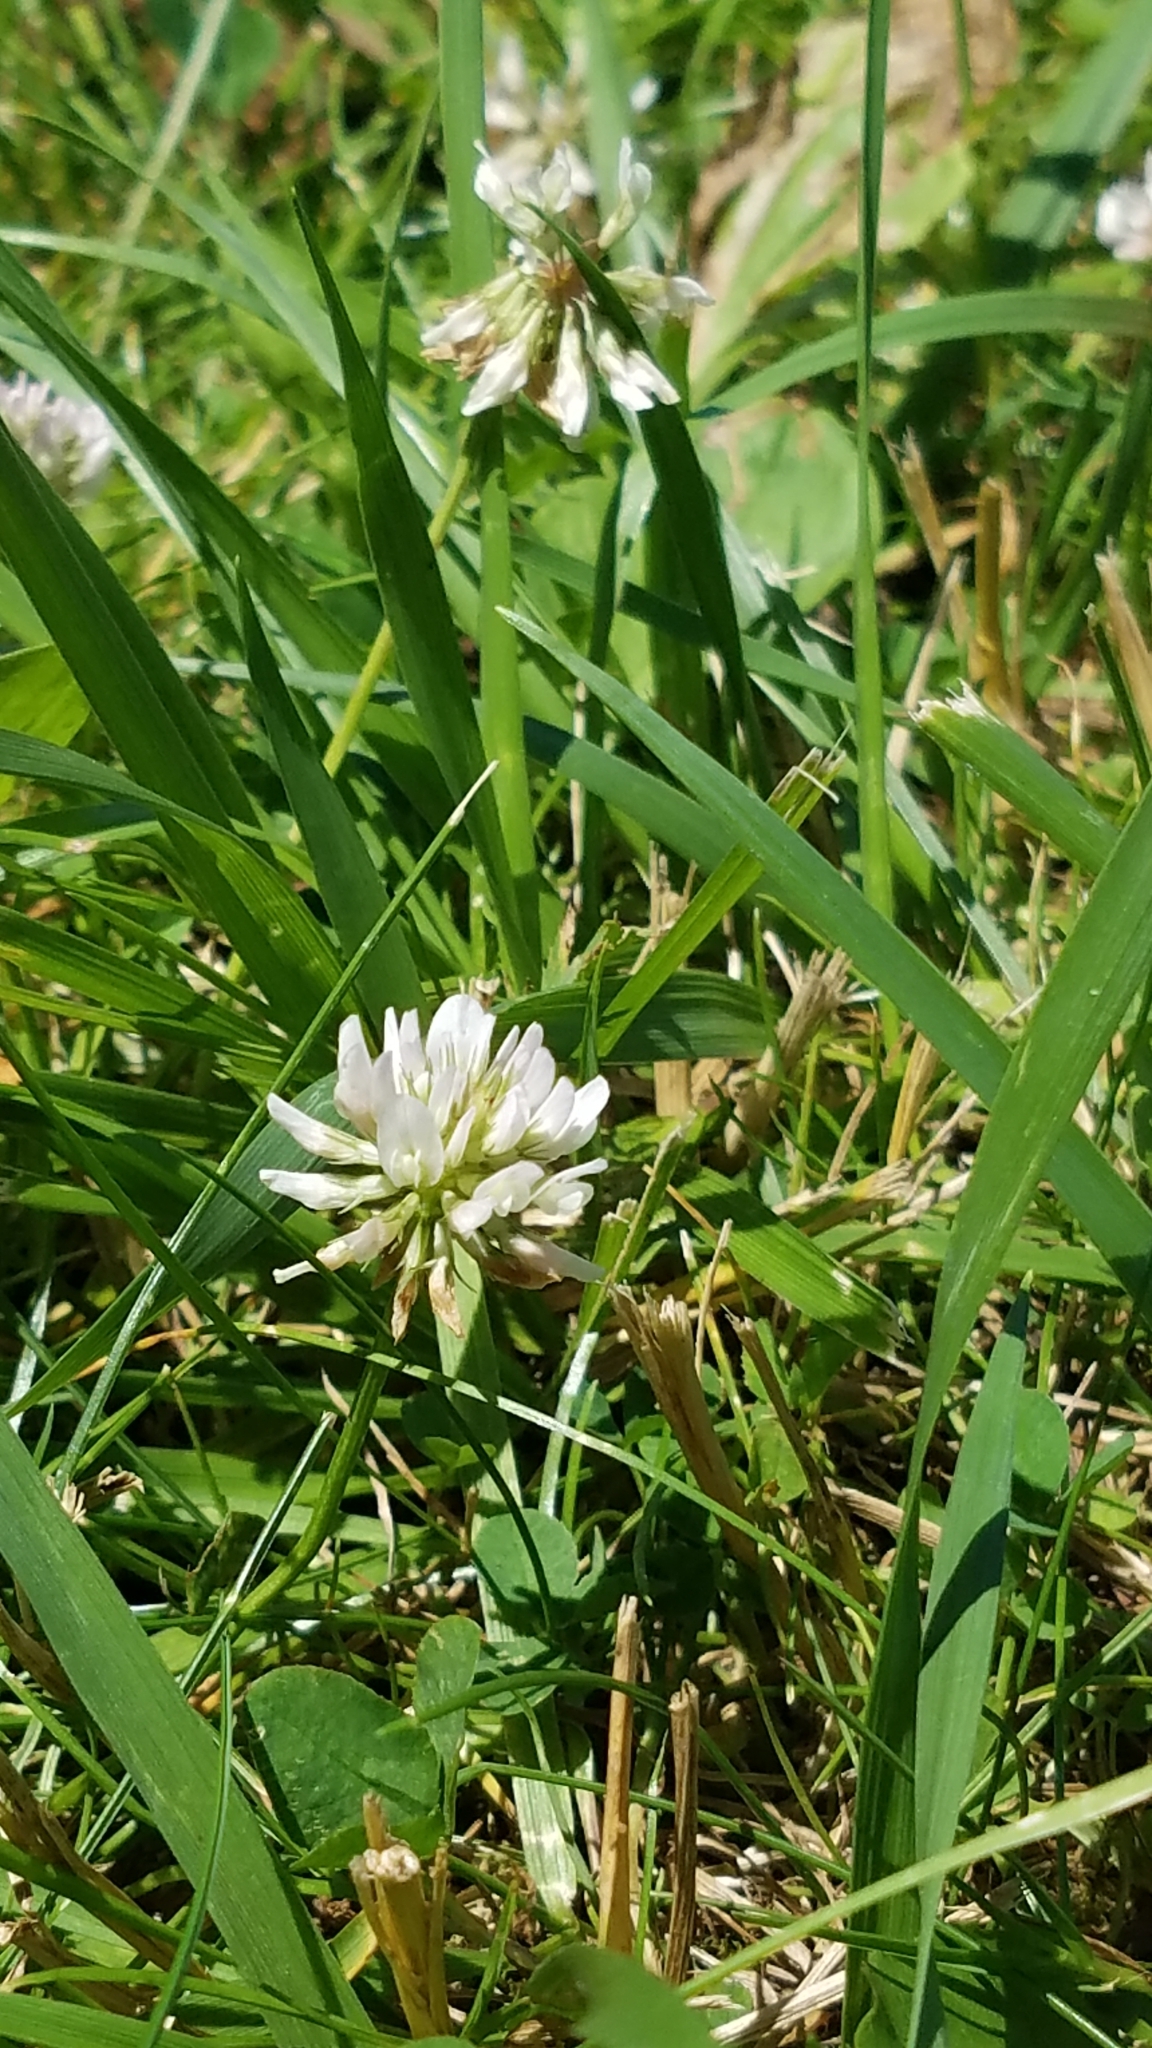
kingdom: Plantae
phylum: Tracheophyta
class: Magnoliopsida
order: Fabales
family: Fabaceae
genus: Trifolium
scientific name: Trifolium repens
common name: White clover
